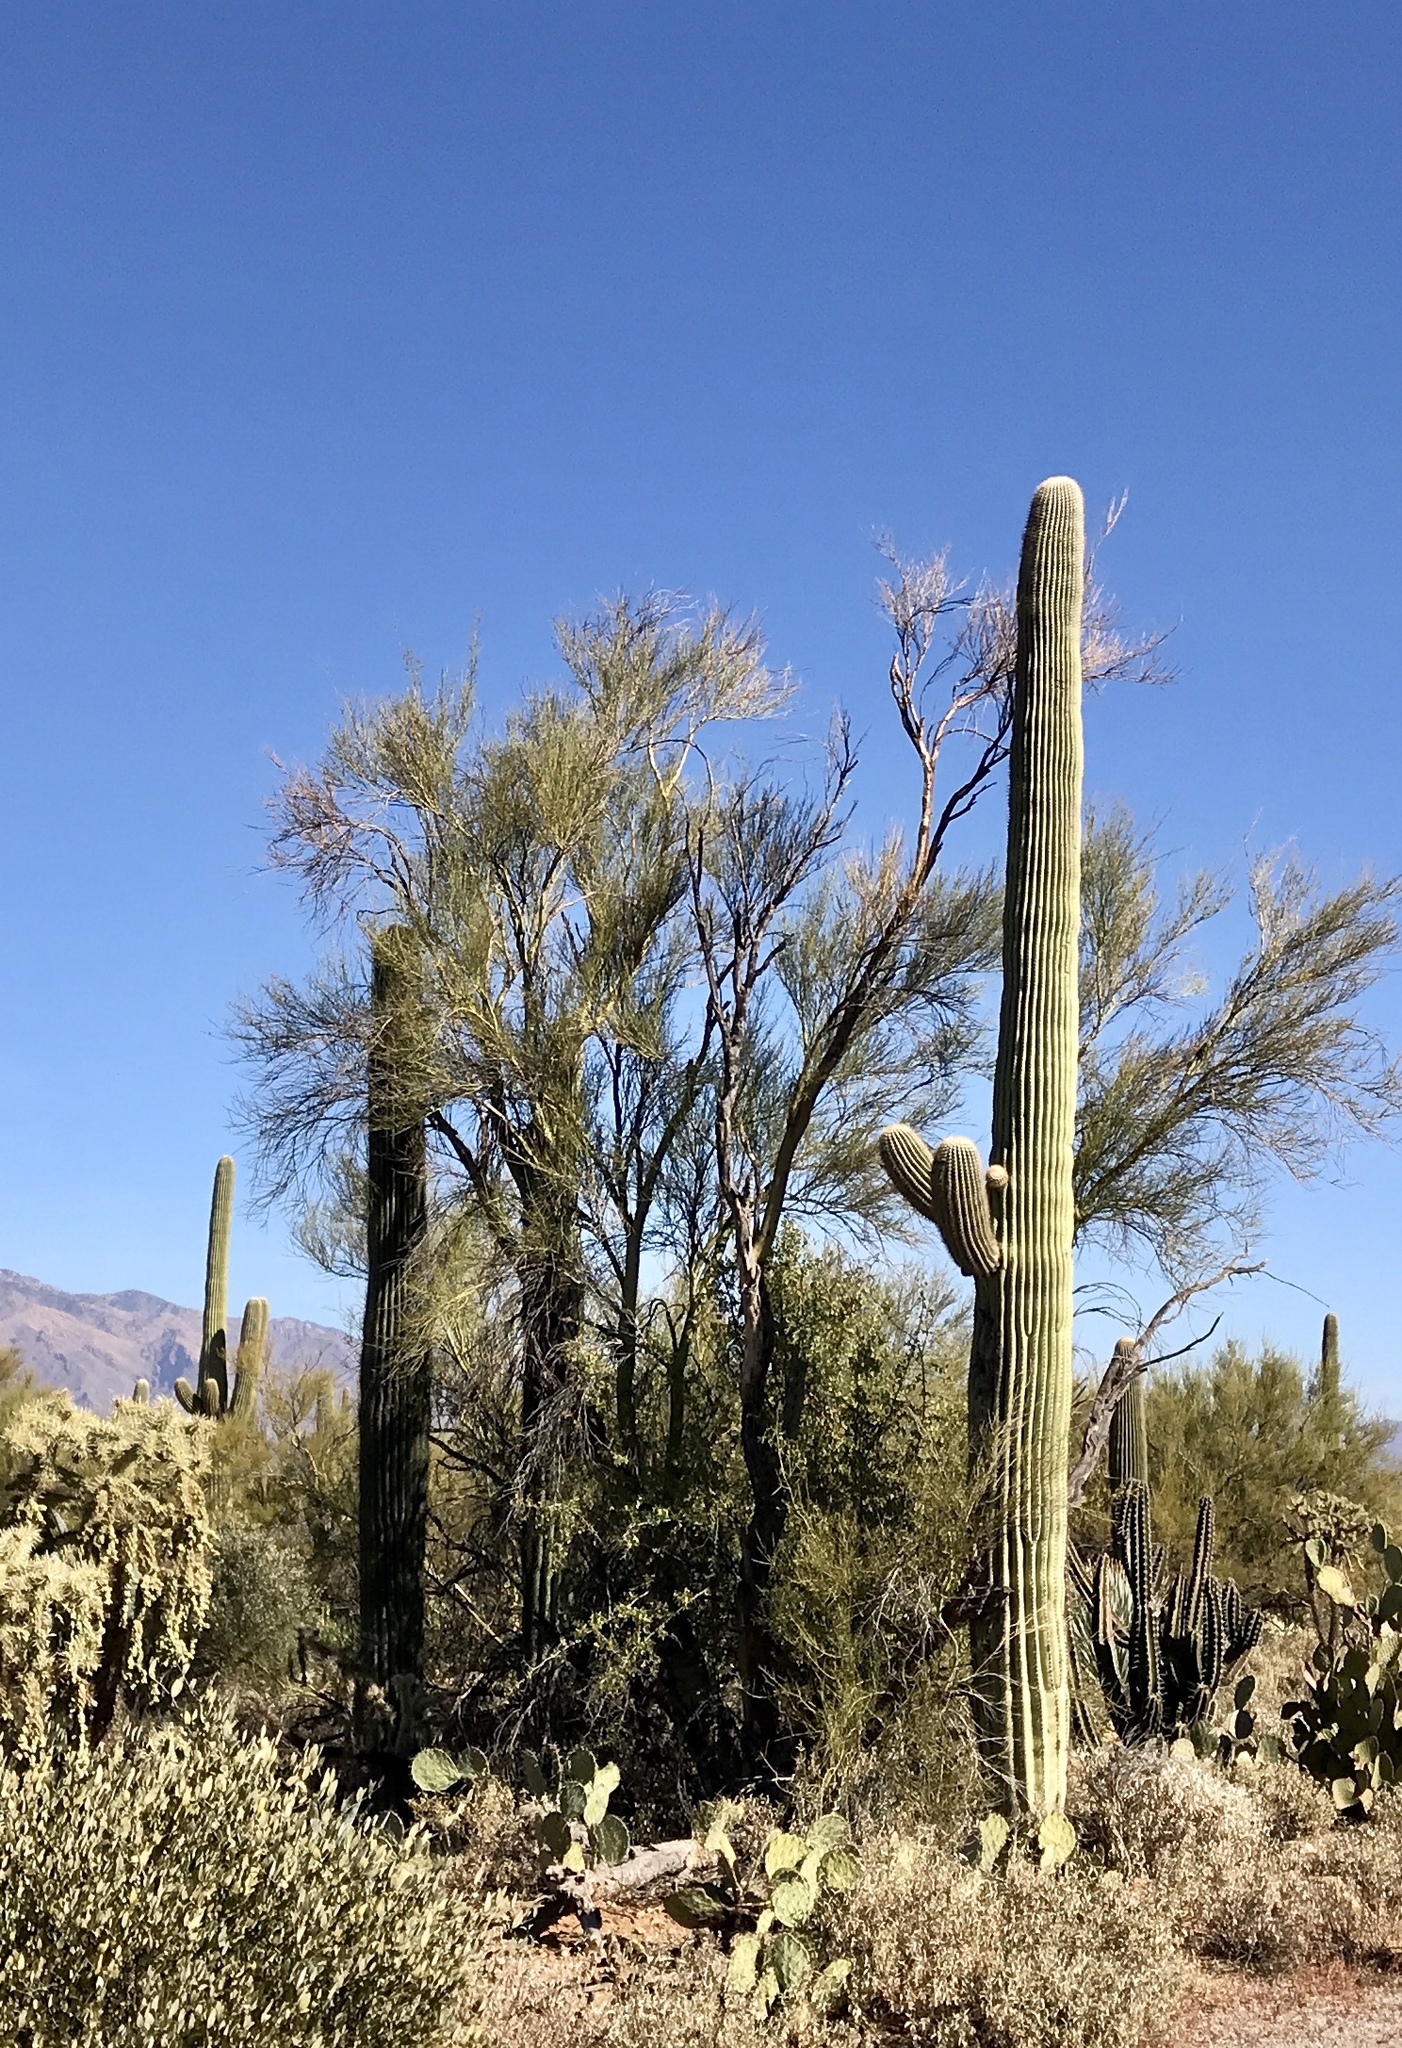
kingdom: Plantae
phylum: Tracheophyta
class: Magnoliopsida
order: Caryophyllales
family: Cactaceae
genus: Carnegiea
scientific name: Carnegiea gigantea
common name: Saguaro
